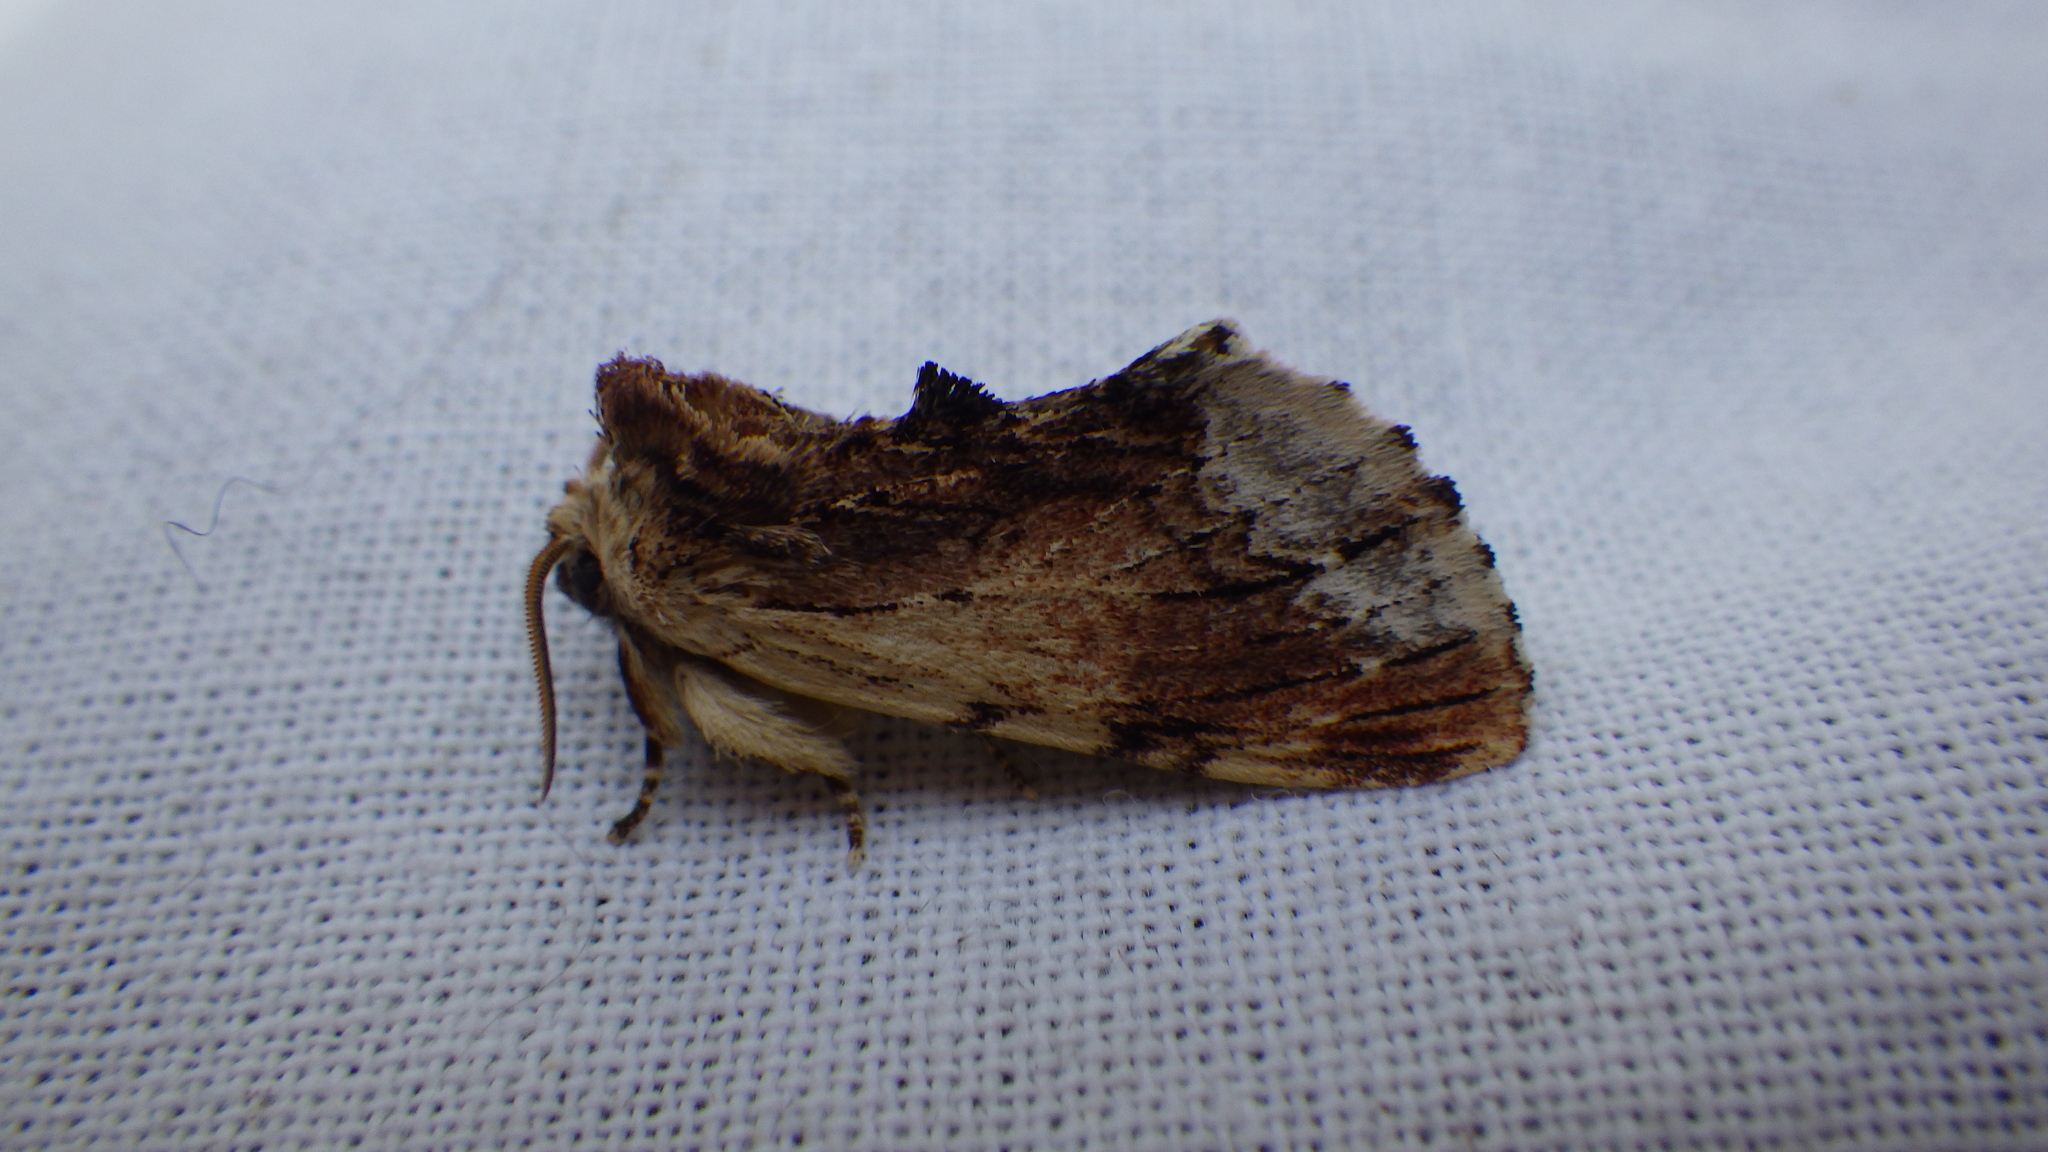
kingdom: Animalia
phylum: Arthropoda
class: Insecta
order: Lepidoptera
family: Notodontidae
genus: Ptilodon
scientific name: Ptilodon cucullina
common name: Maple prominent
